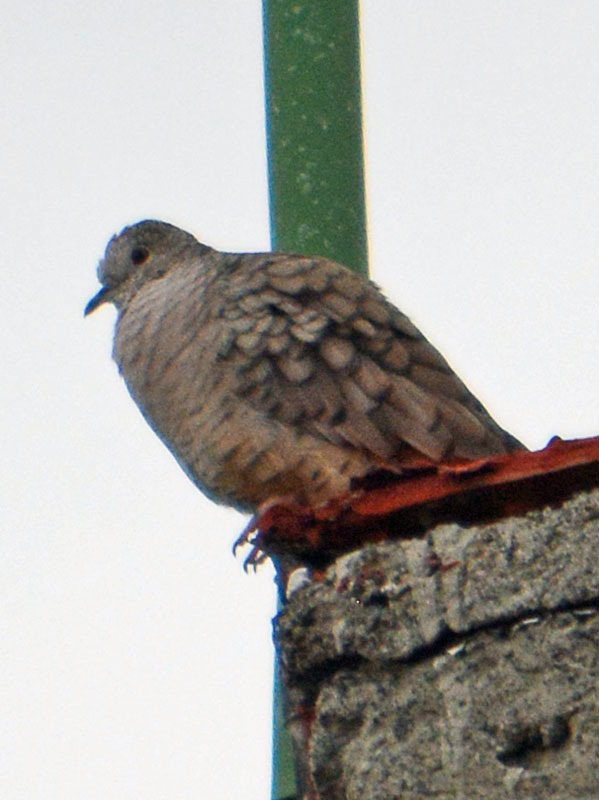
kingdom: Animalia
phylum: Chordata
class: Aves
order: Columbiformes
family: Columbidae
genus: Columbina
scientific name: Columbina inca
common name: Inca dove
